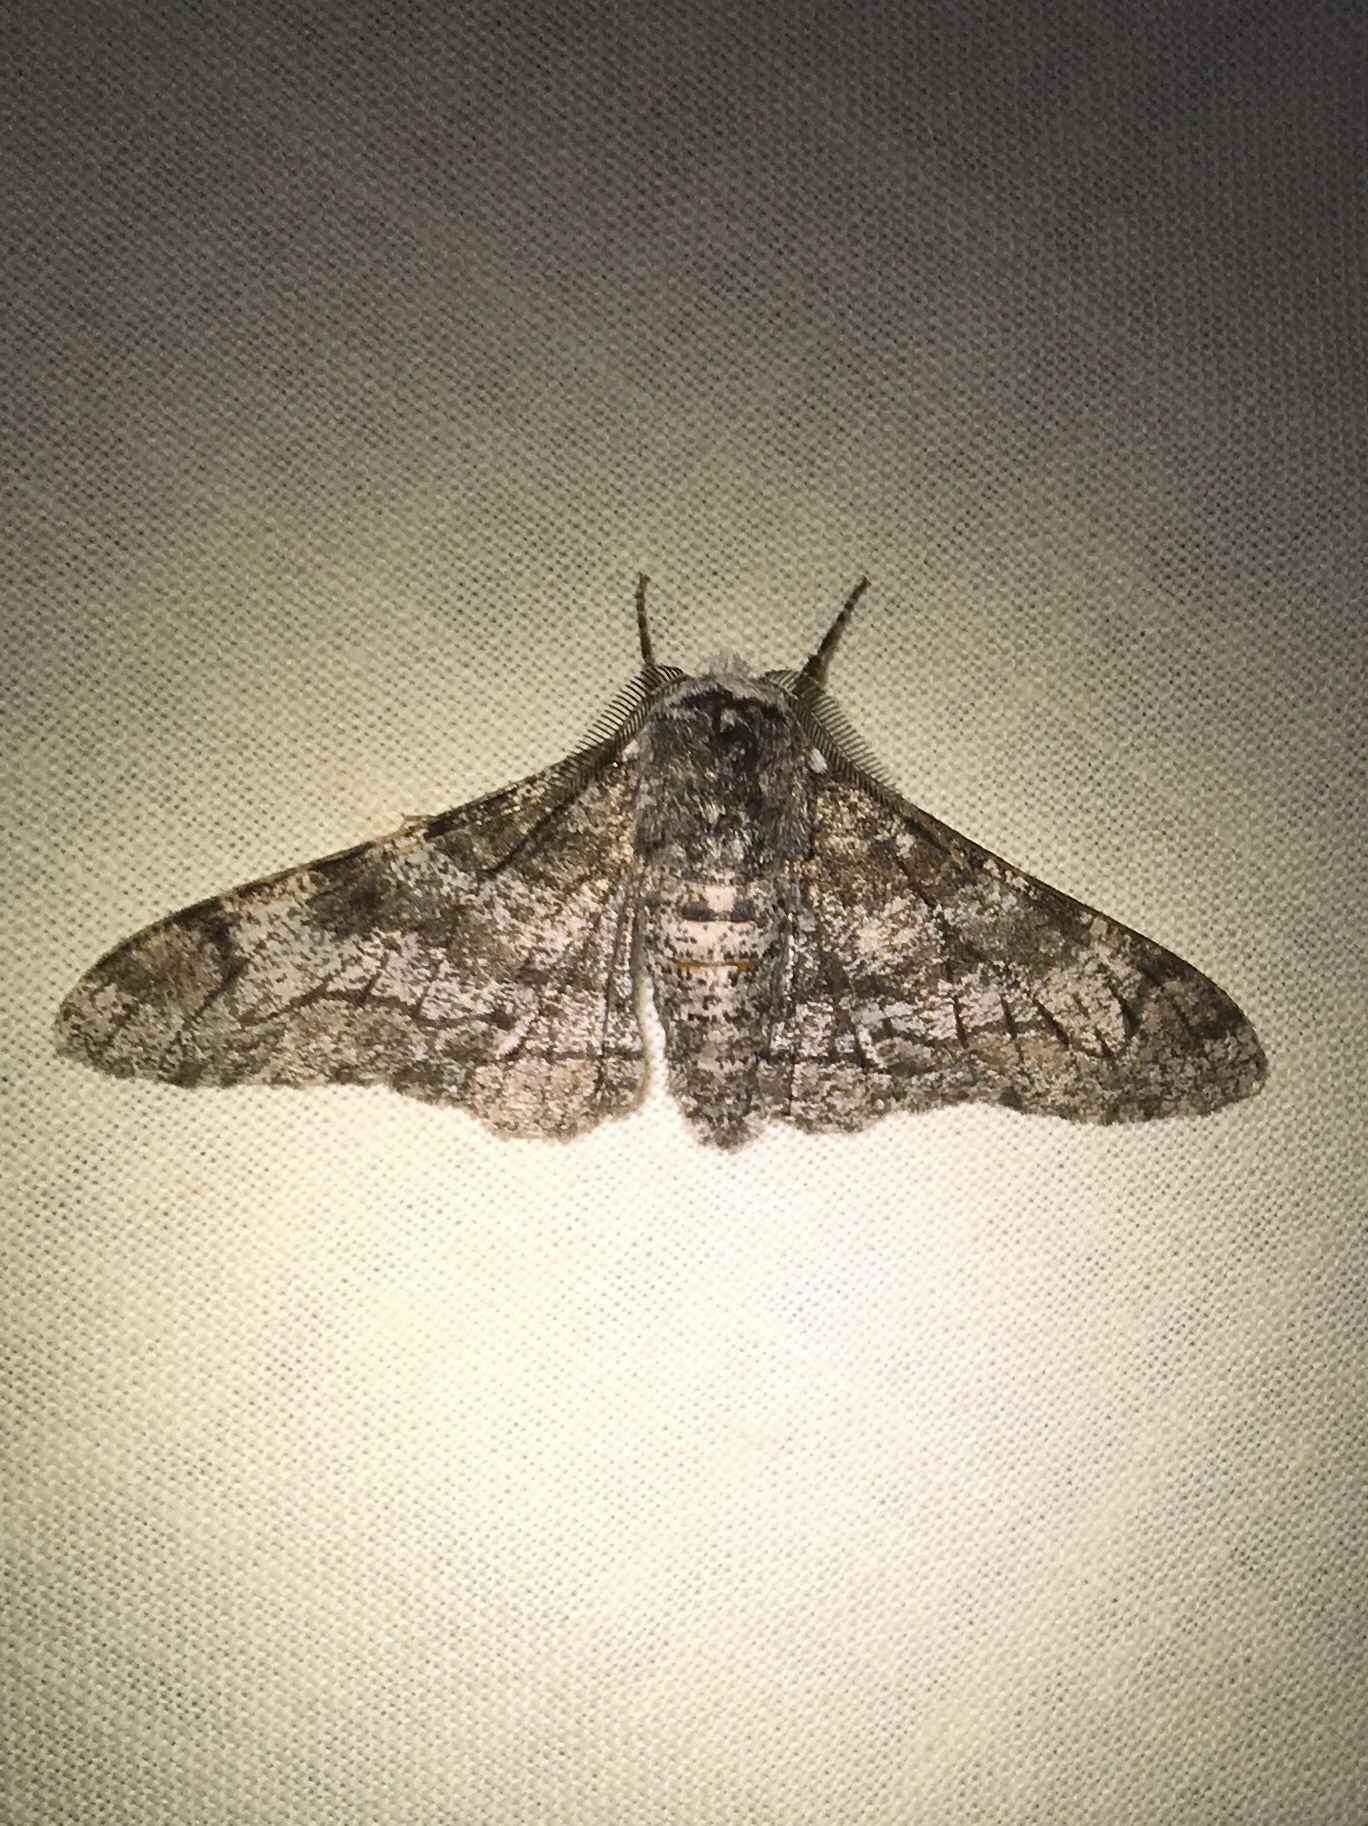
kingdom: Animalia
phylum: Arthropoda
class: Insecta
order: Lepidoptera
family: Geometridae
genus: Biston
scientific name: Biston betularia
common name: Peppered moth
